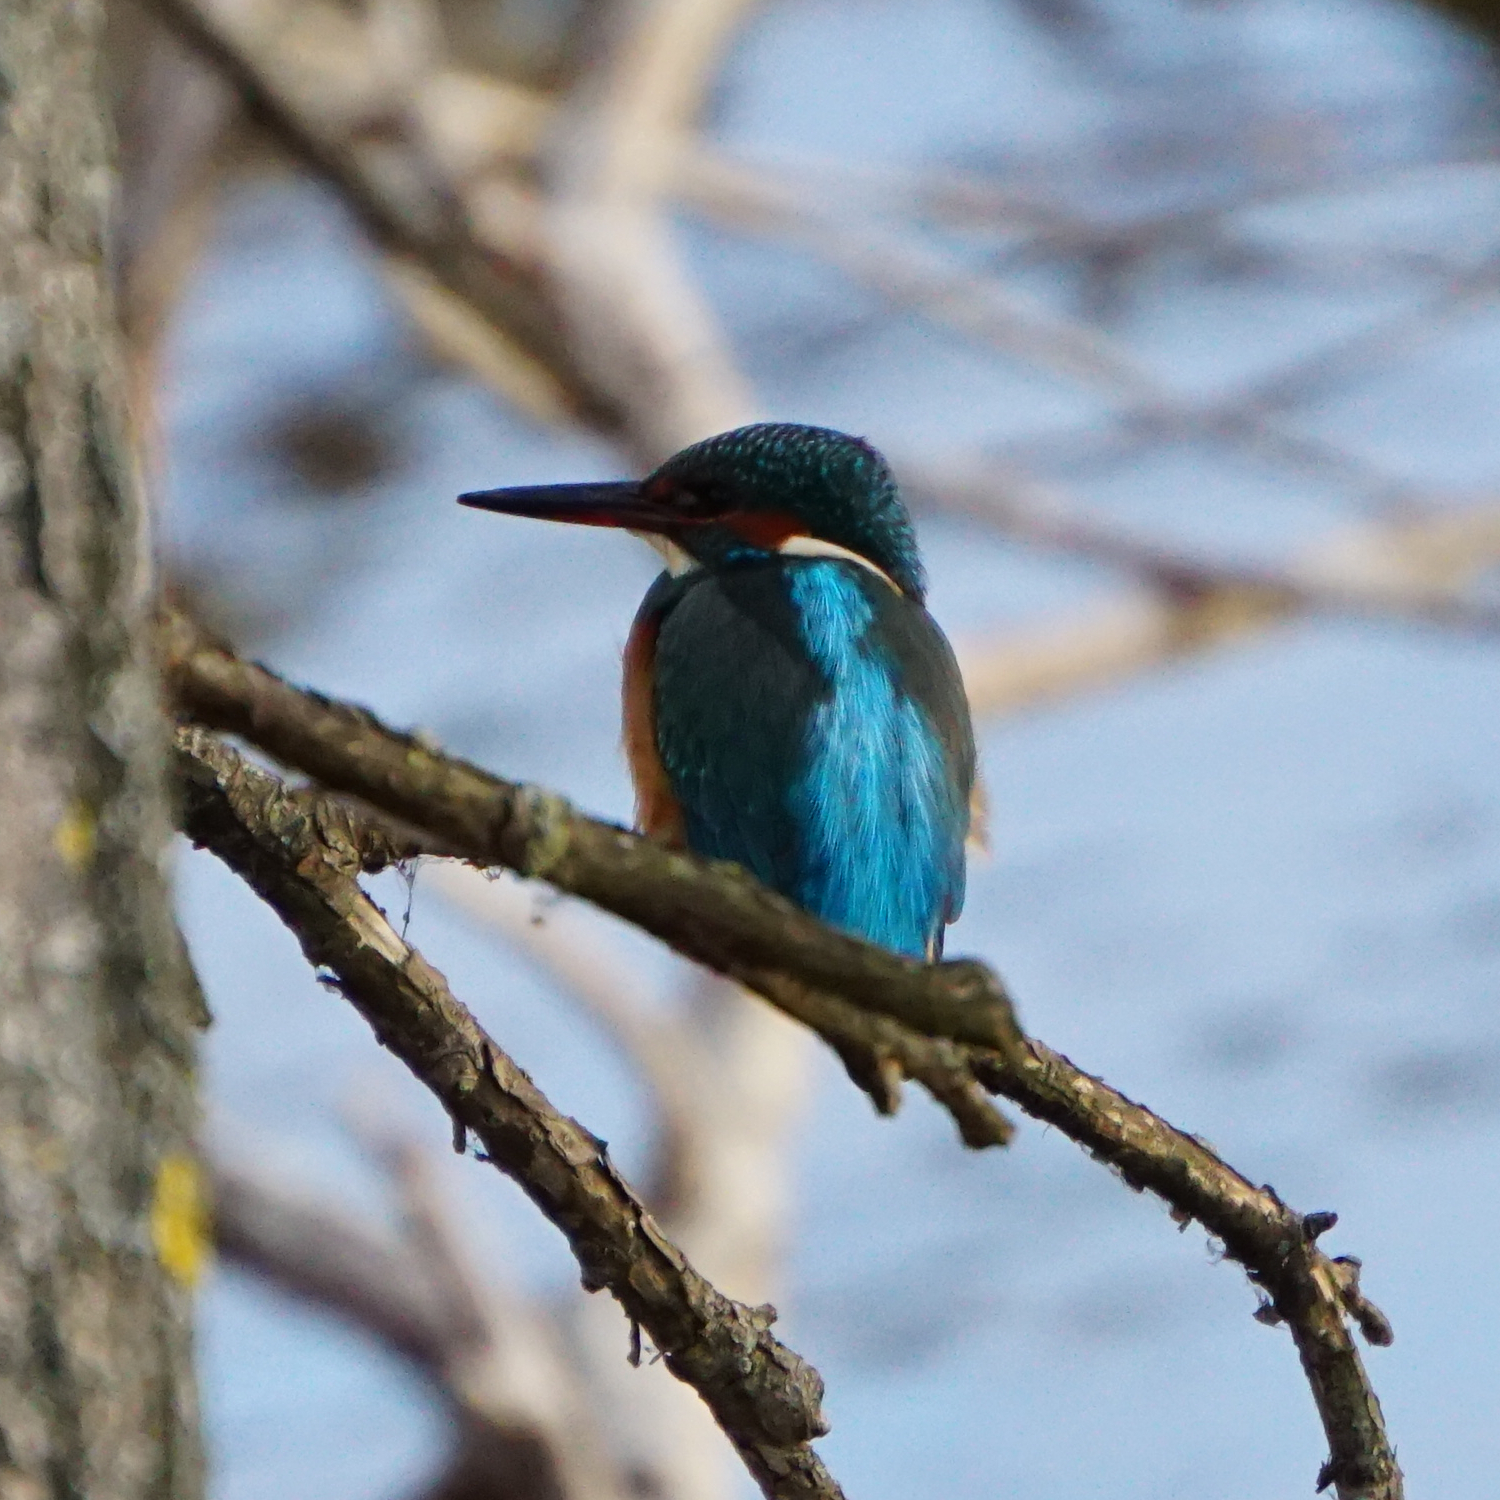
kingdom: Animalia
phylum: Chordata
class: Aves
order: Coraciiformes
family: Alcedinidae
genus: Alcedo
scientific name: Alcedo atthis
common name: Common kingfisher
